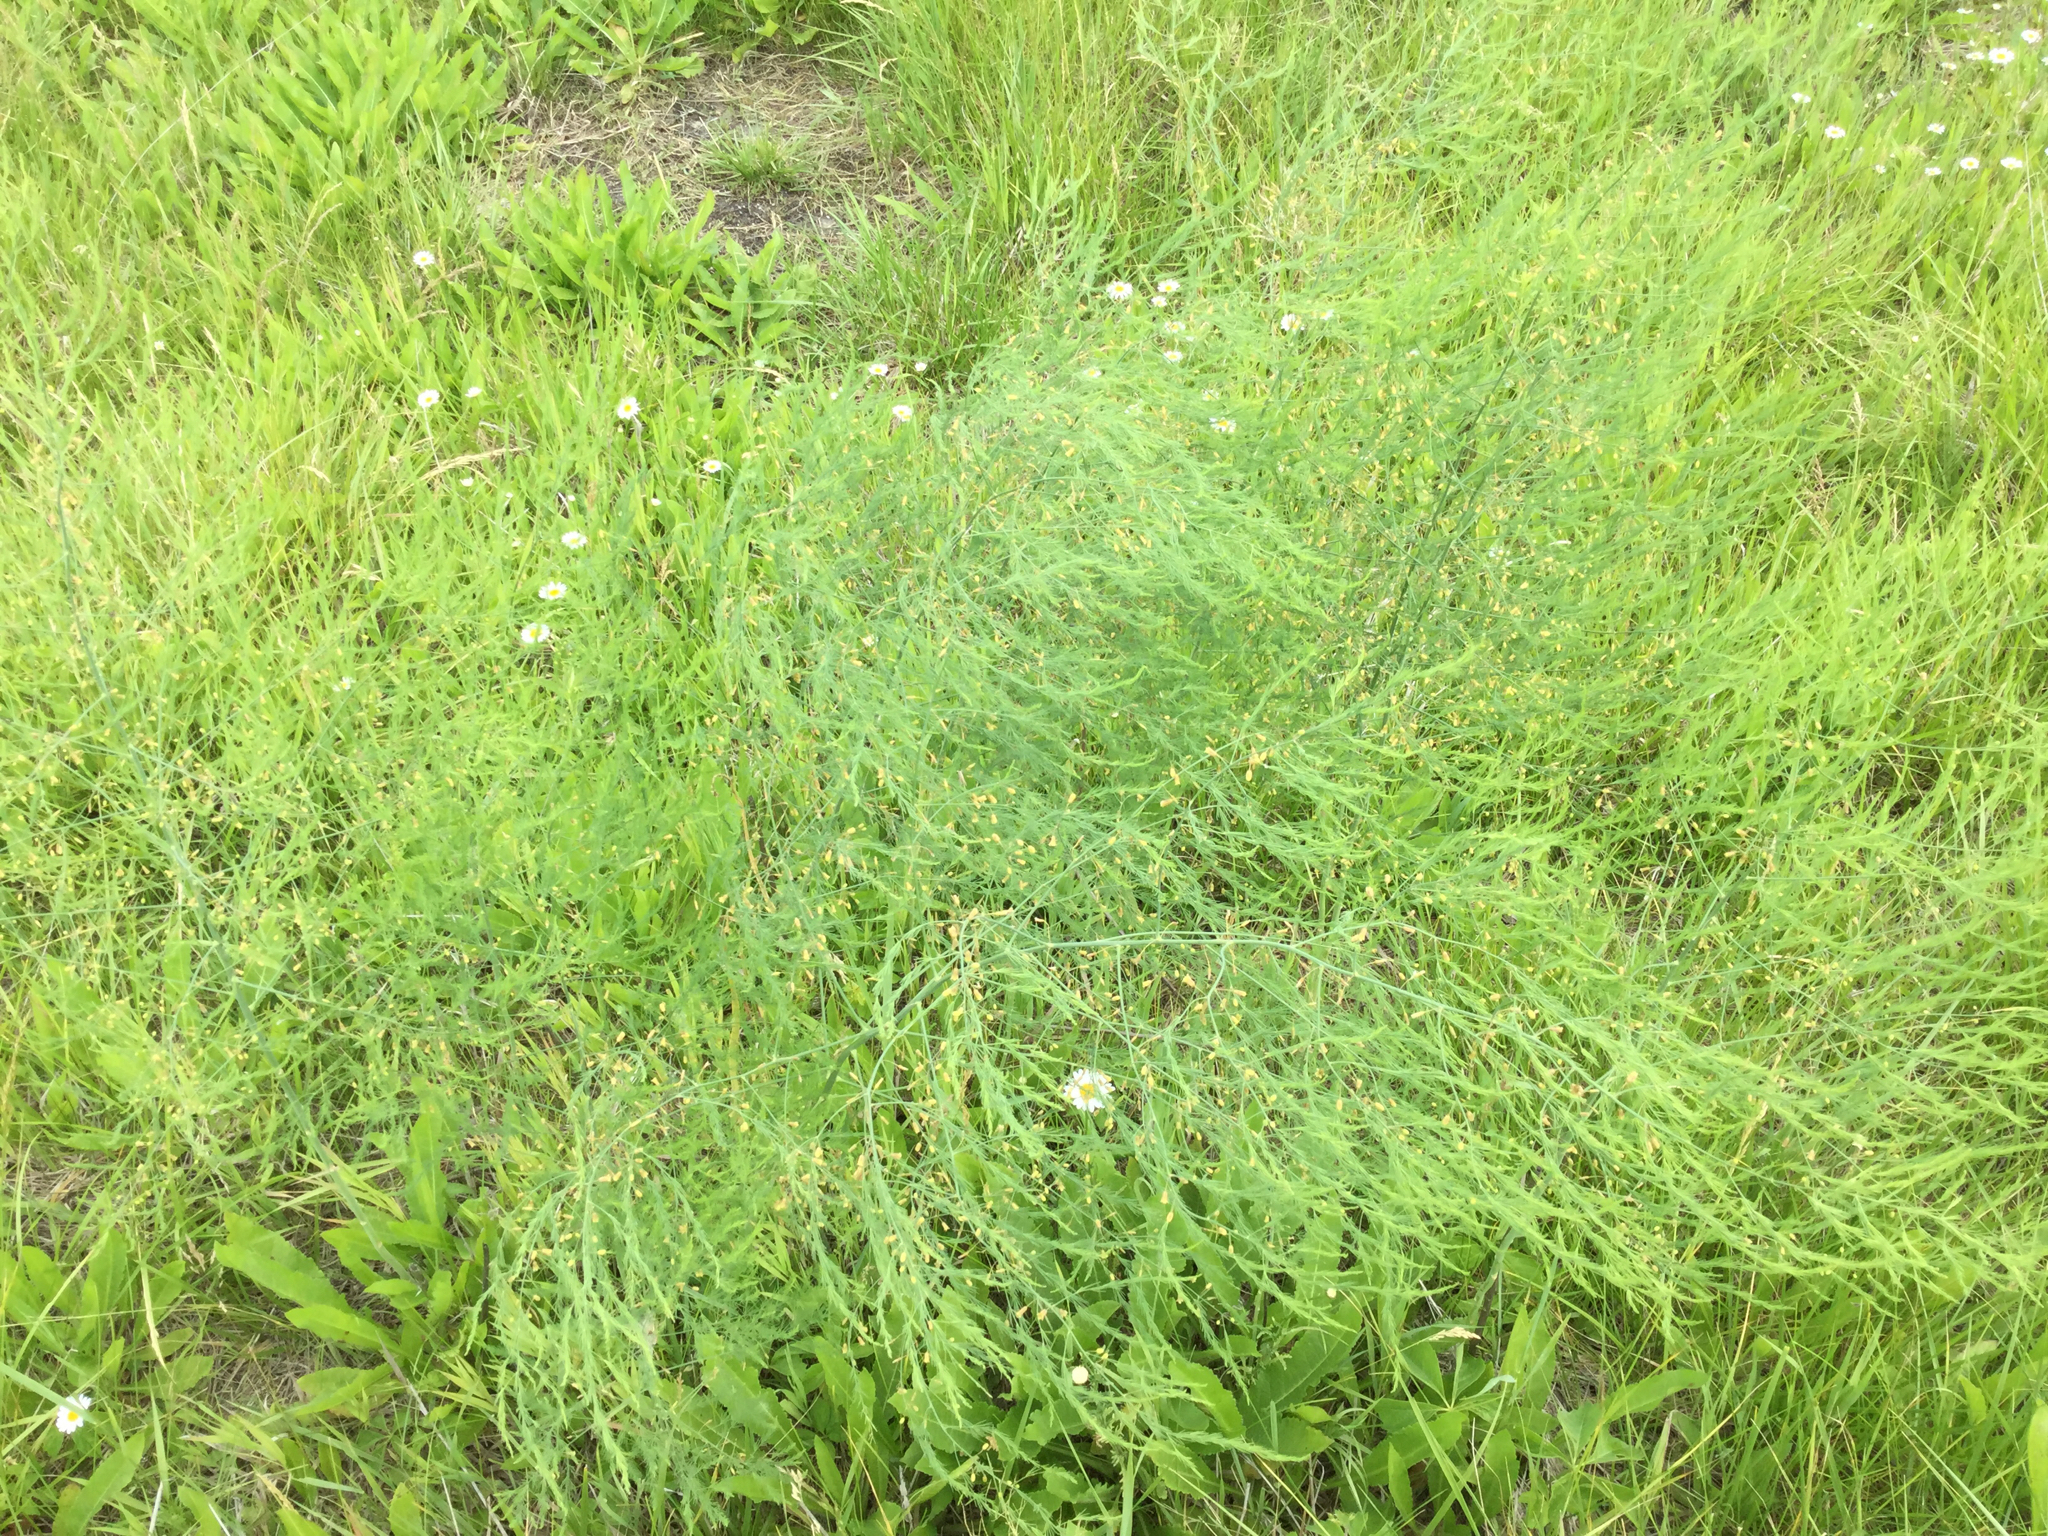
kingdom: Plantae
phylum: Tracheophyta
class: Liliopsida
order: Asparagales
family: Asparagaceae
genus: Asparagus
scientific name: Asparagus officinalis
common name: Garden asparagus
